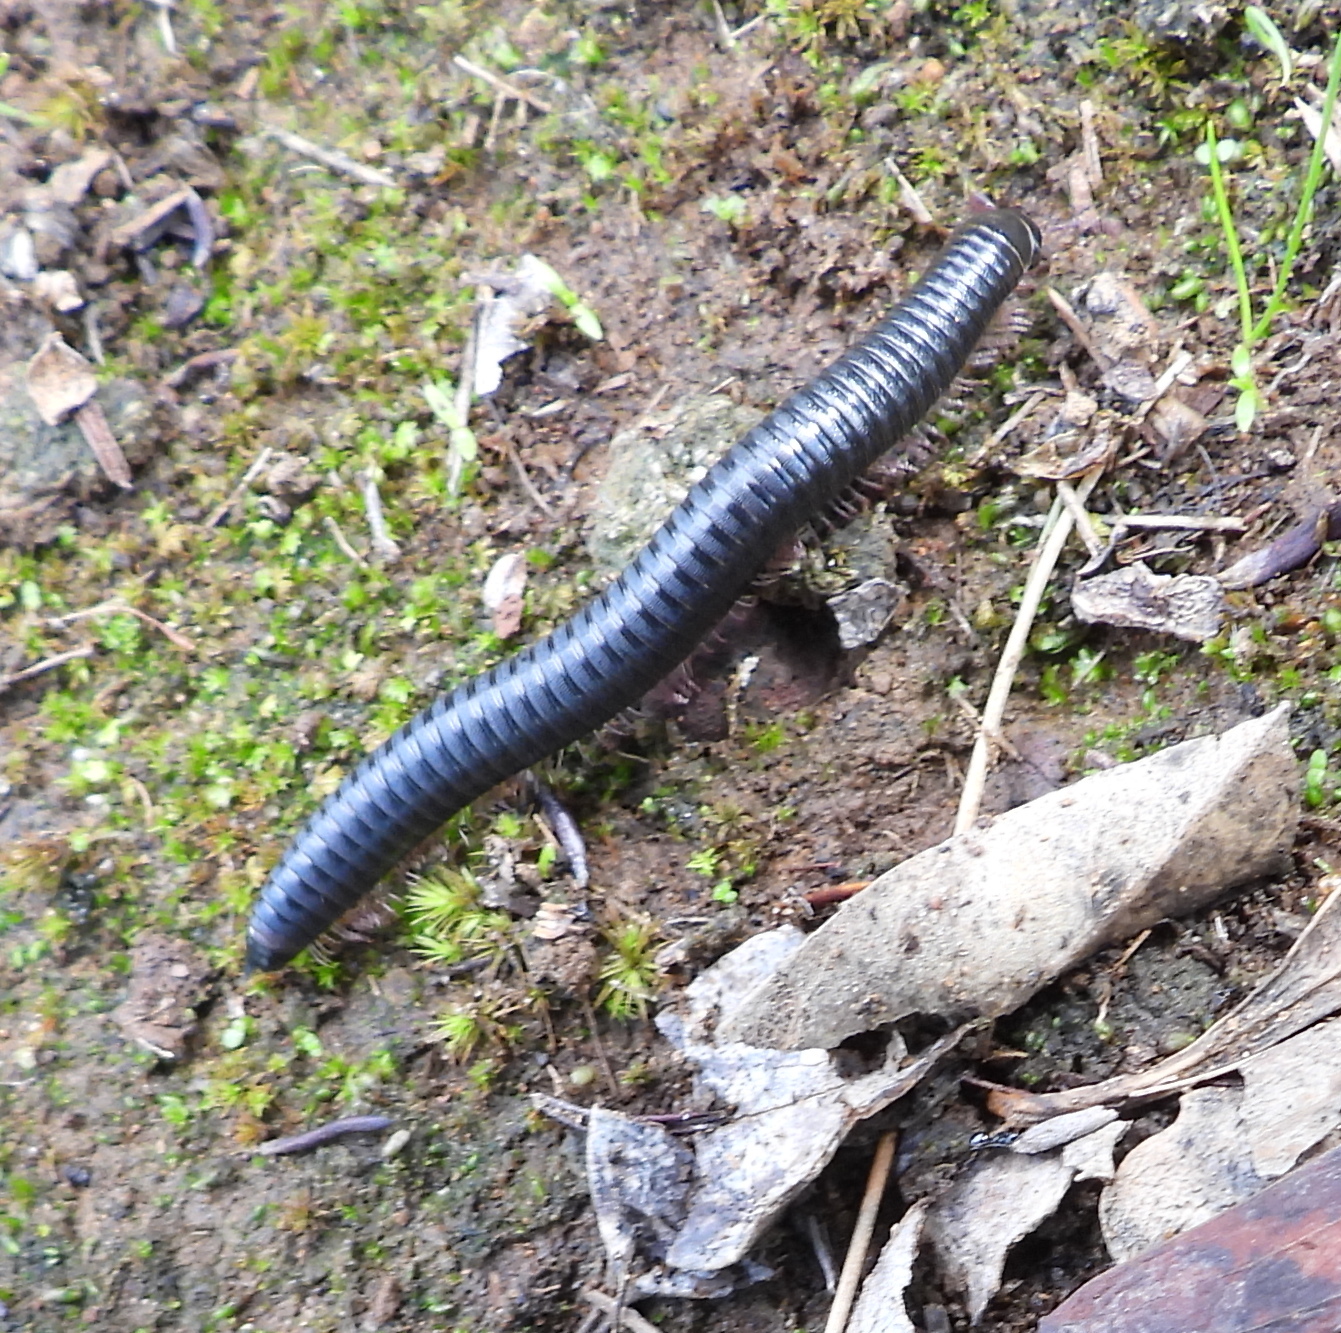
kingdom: Animalia
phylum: Arthropoda
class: Diplopoda
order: Julida
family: Julidae
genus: Ommatoiulus
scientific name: Ommatoiulus moreleti
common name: Portuguese millipede
